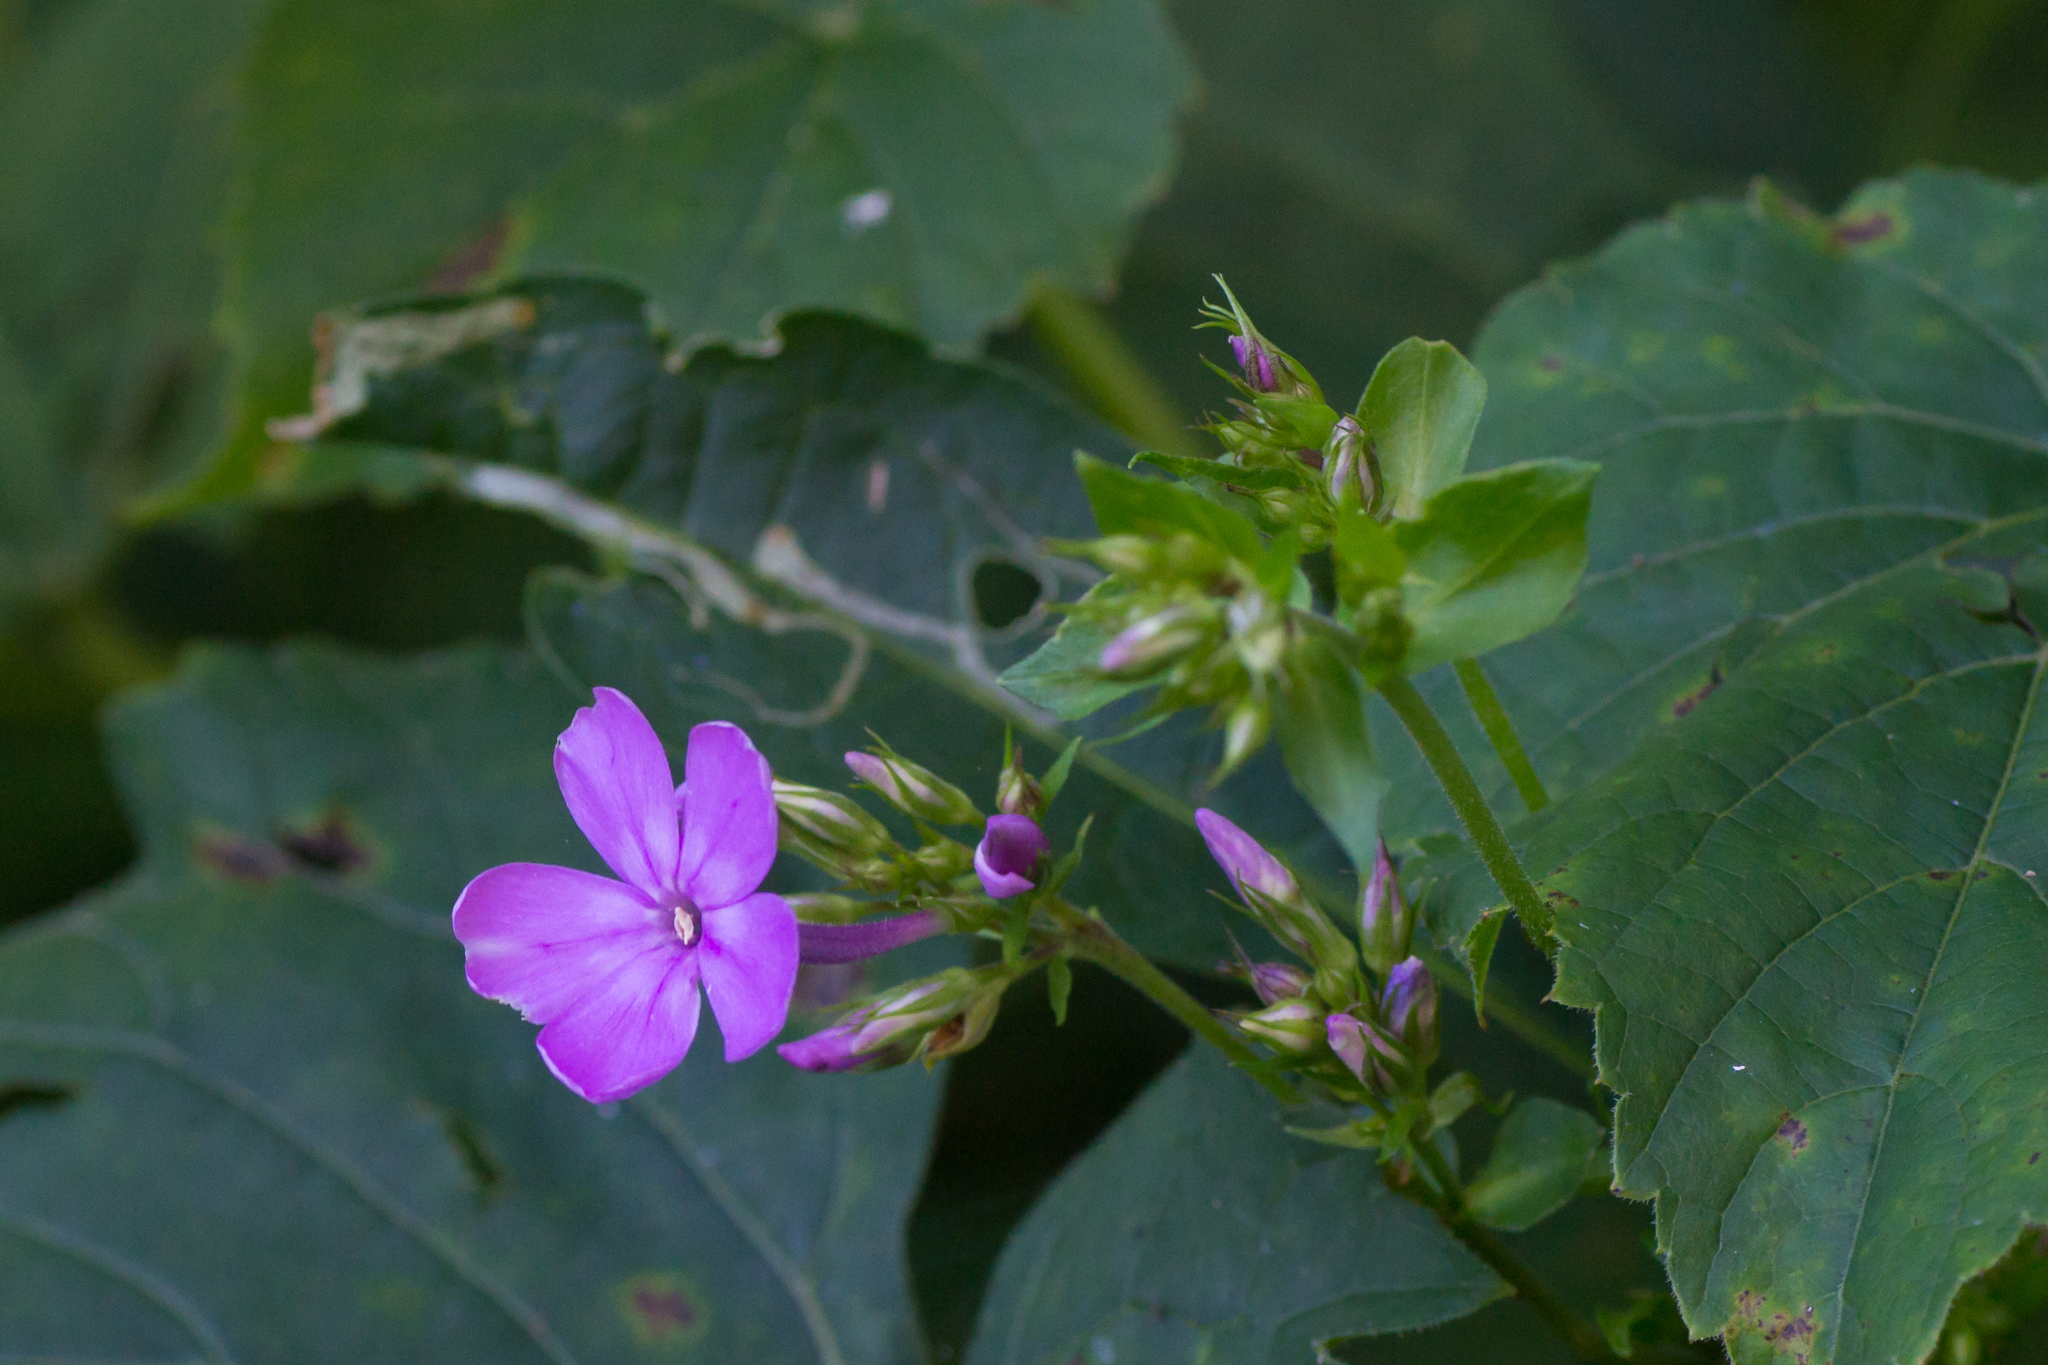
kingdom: Plantae
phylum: Tracheophyta
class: Magnoliopsida
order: Ericales
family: Polemoniaceae
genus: Phlox
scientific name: Phlox paniculata
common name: Fall phlox
